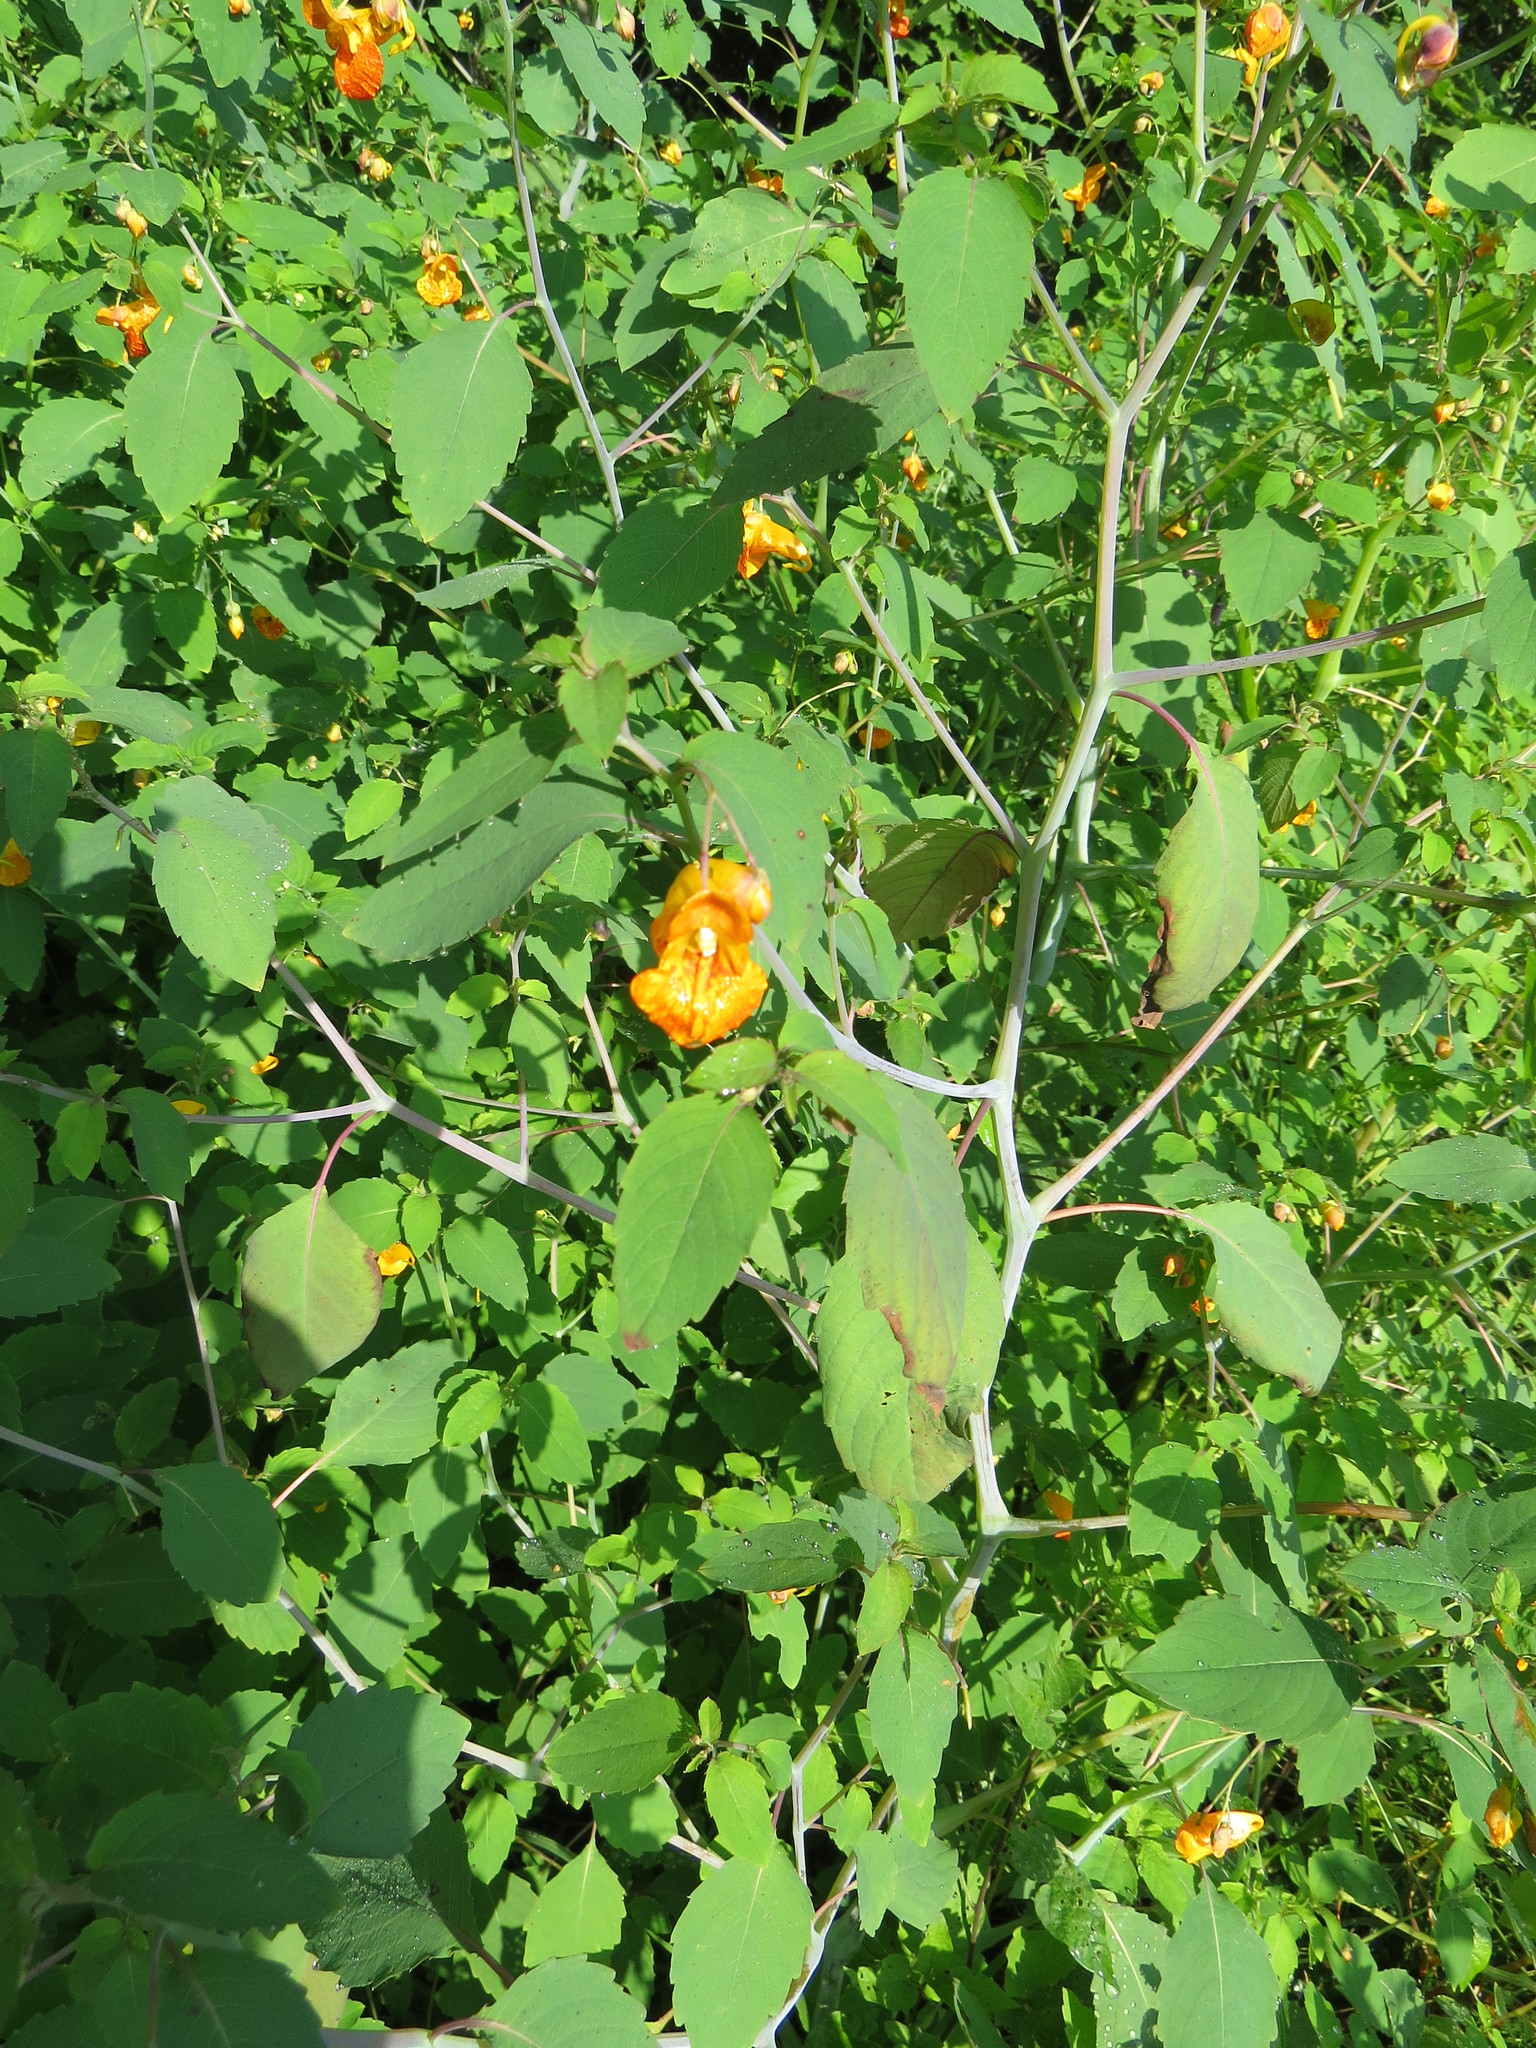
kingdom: Plantae
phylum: Tracheophyta
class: Magnoliopsida
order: Ericales
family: Balsaminaceae
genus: Impatiens
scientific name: Impatiens capensis
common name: Orange balsam
